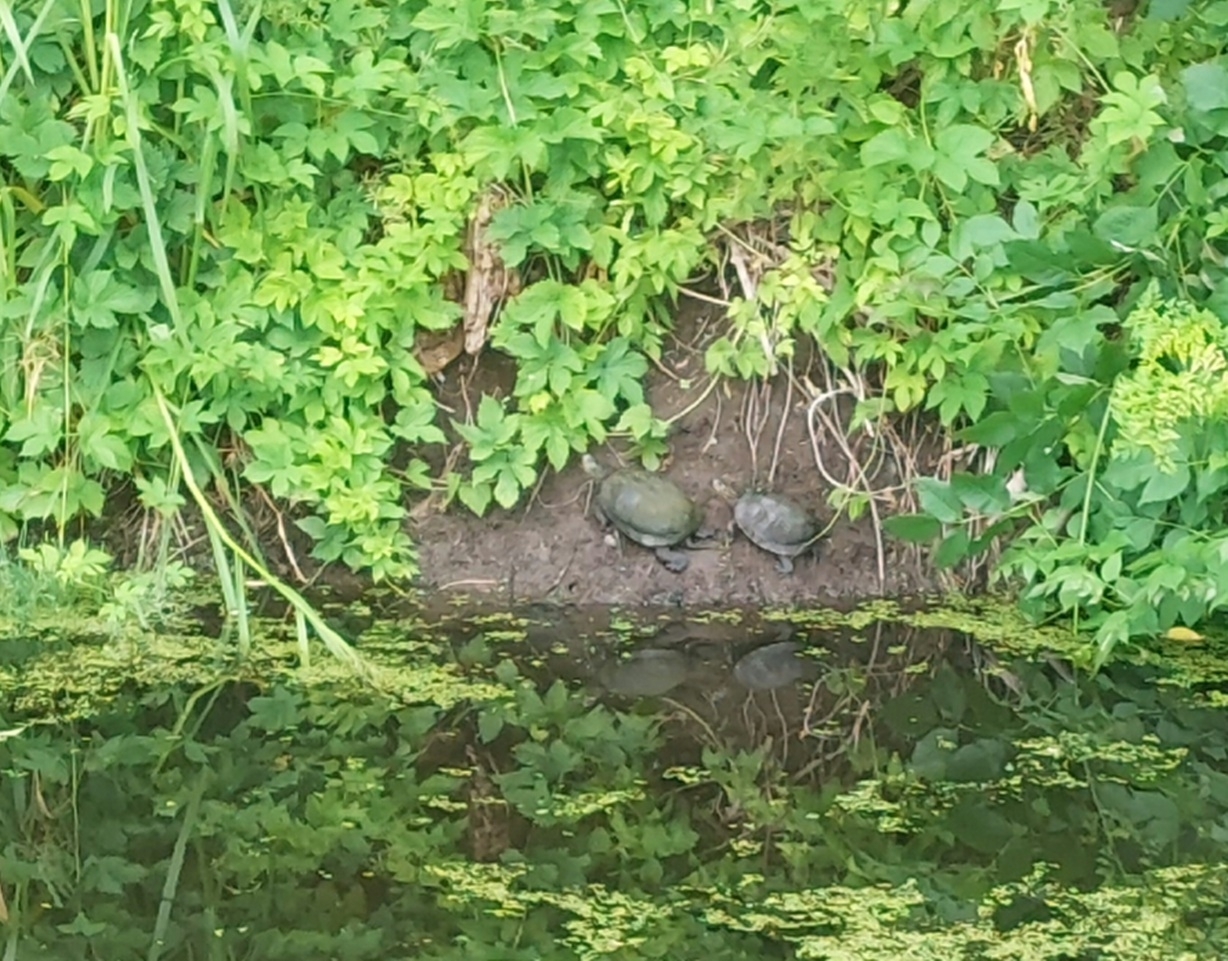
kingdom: Animalia
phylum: Chordata
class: Testudines
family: Emydidae
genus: Emys
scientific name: Emys orbicularis
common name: European pond turtle
